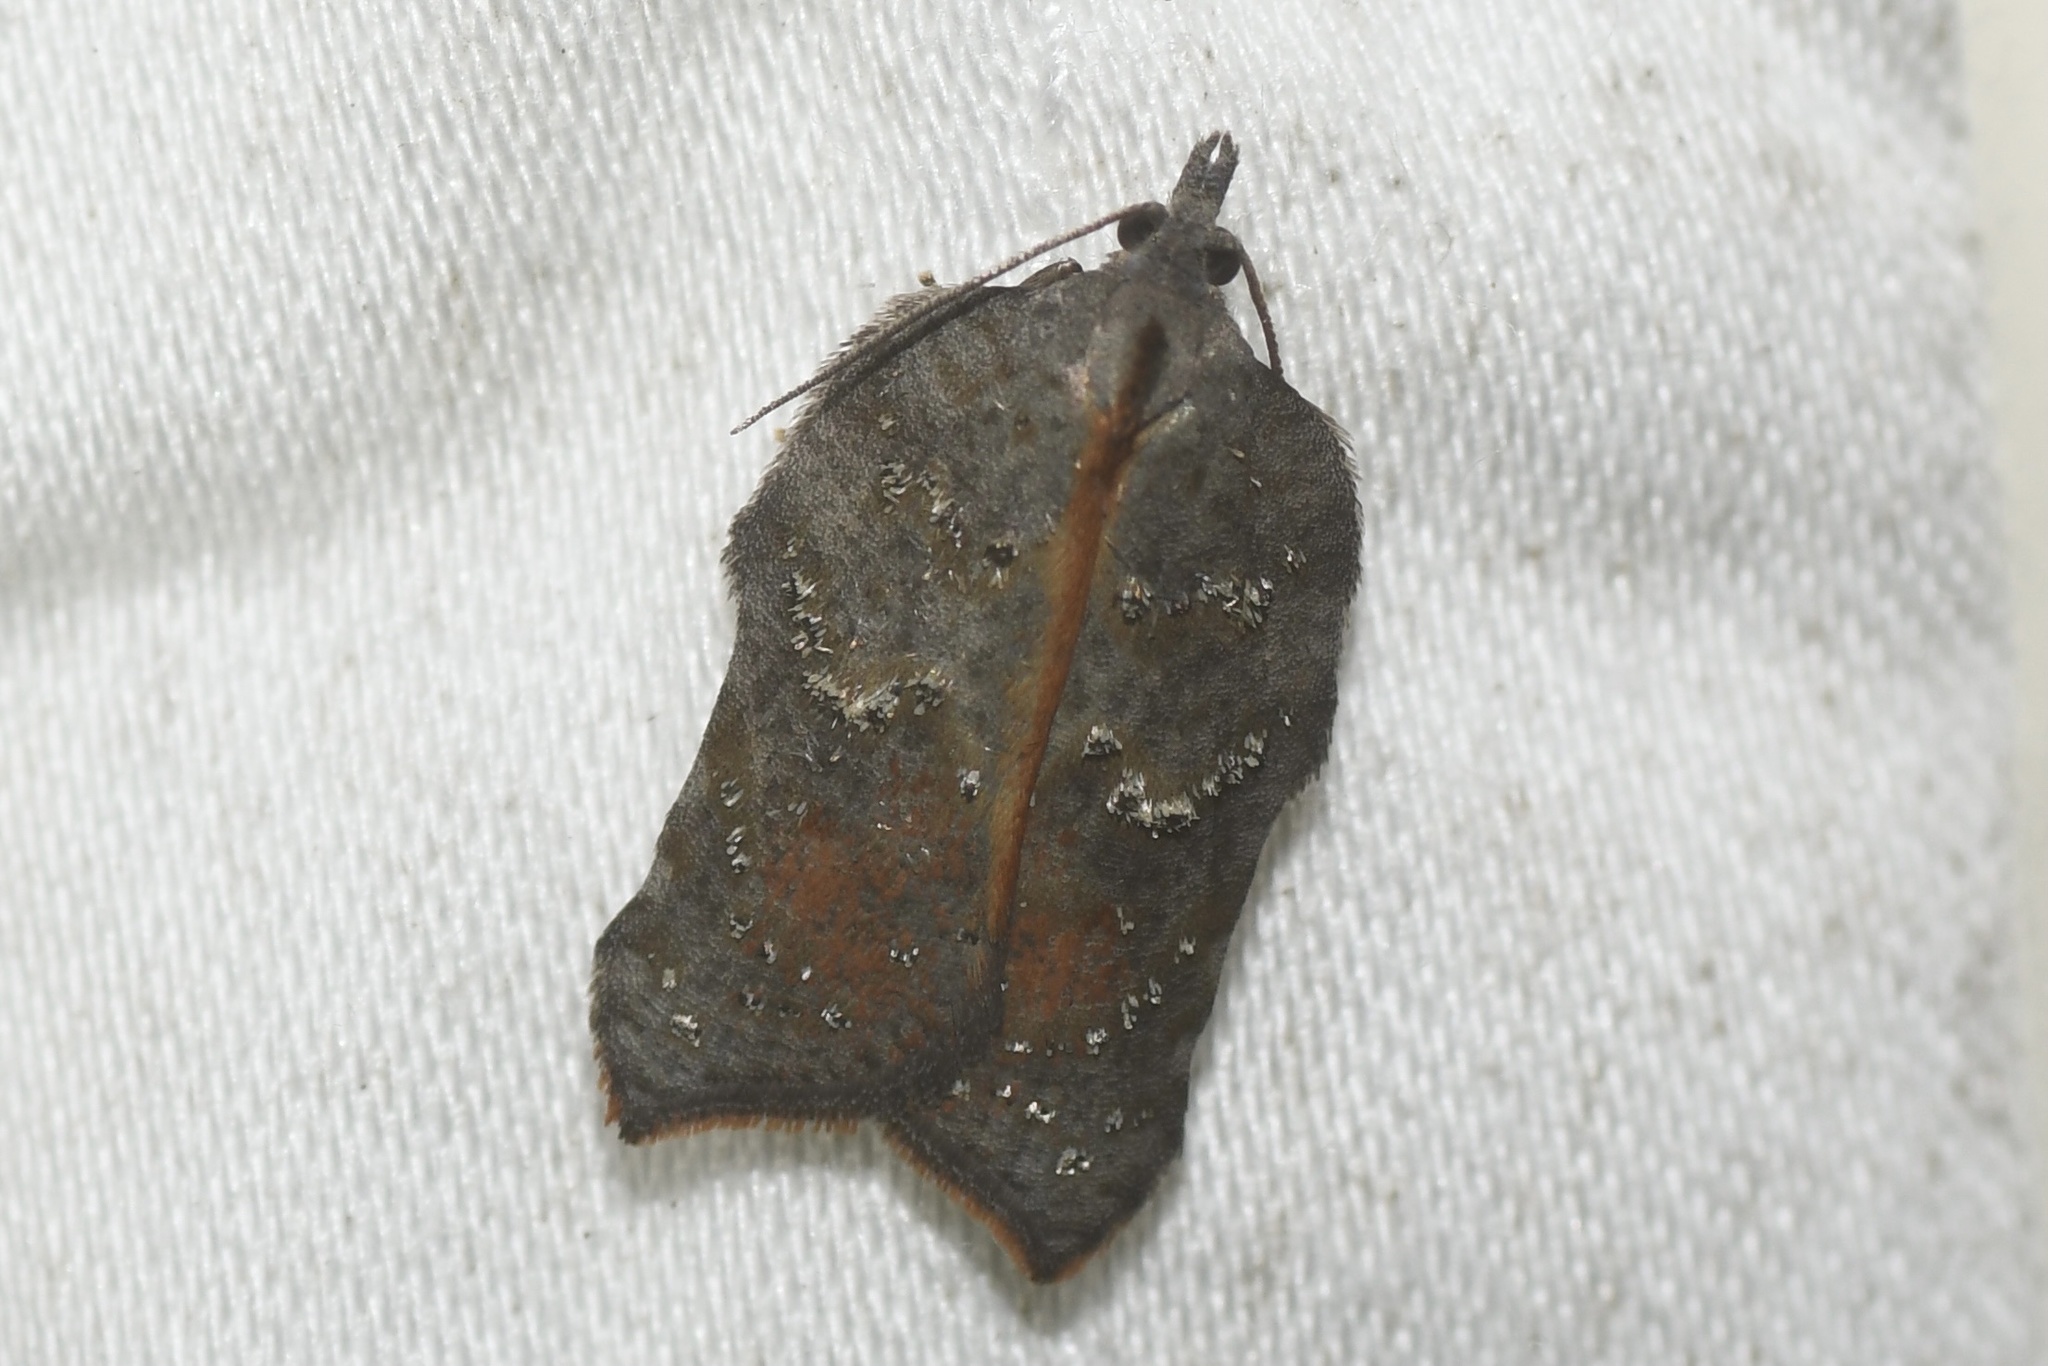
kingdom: Animalia
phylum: Arthropoda
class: Insecta
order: Lepidoptera
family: Tortricidae
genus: Acleris
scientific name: Acleris effractana
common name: Hook-winged tortrix moth
